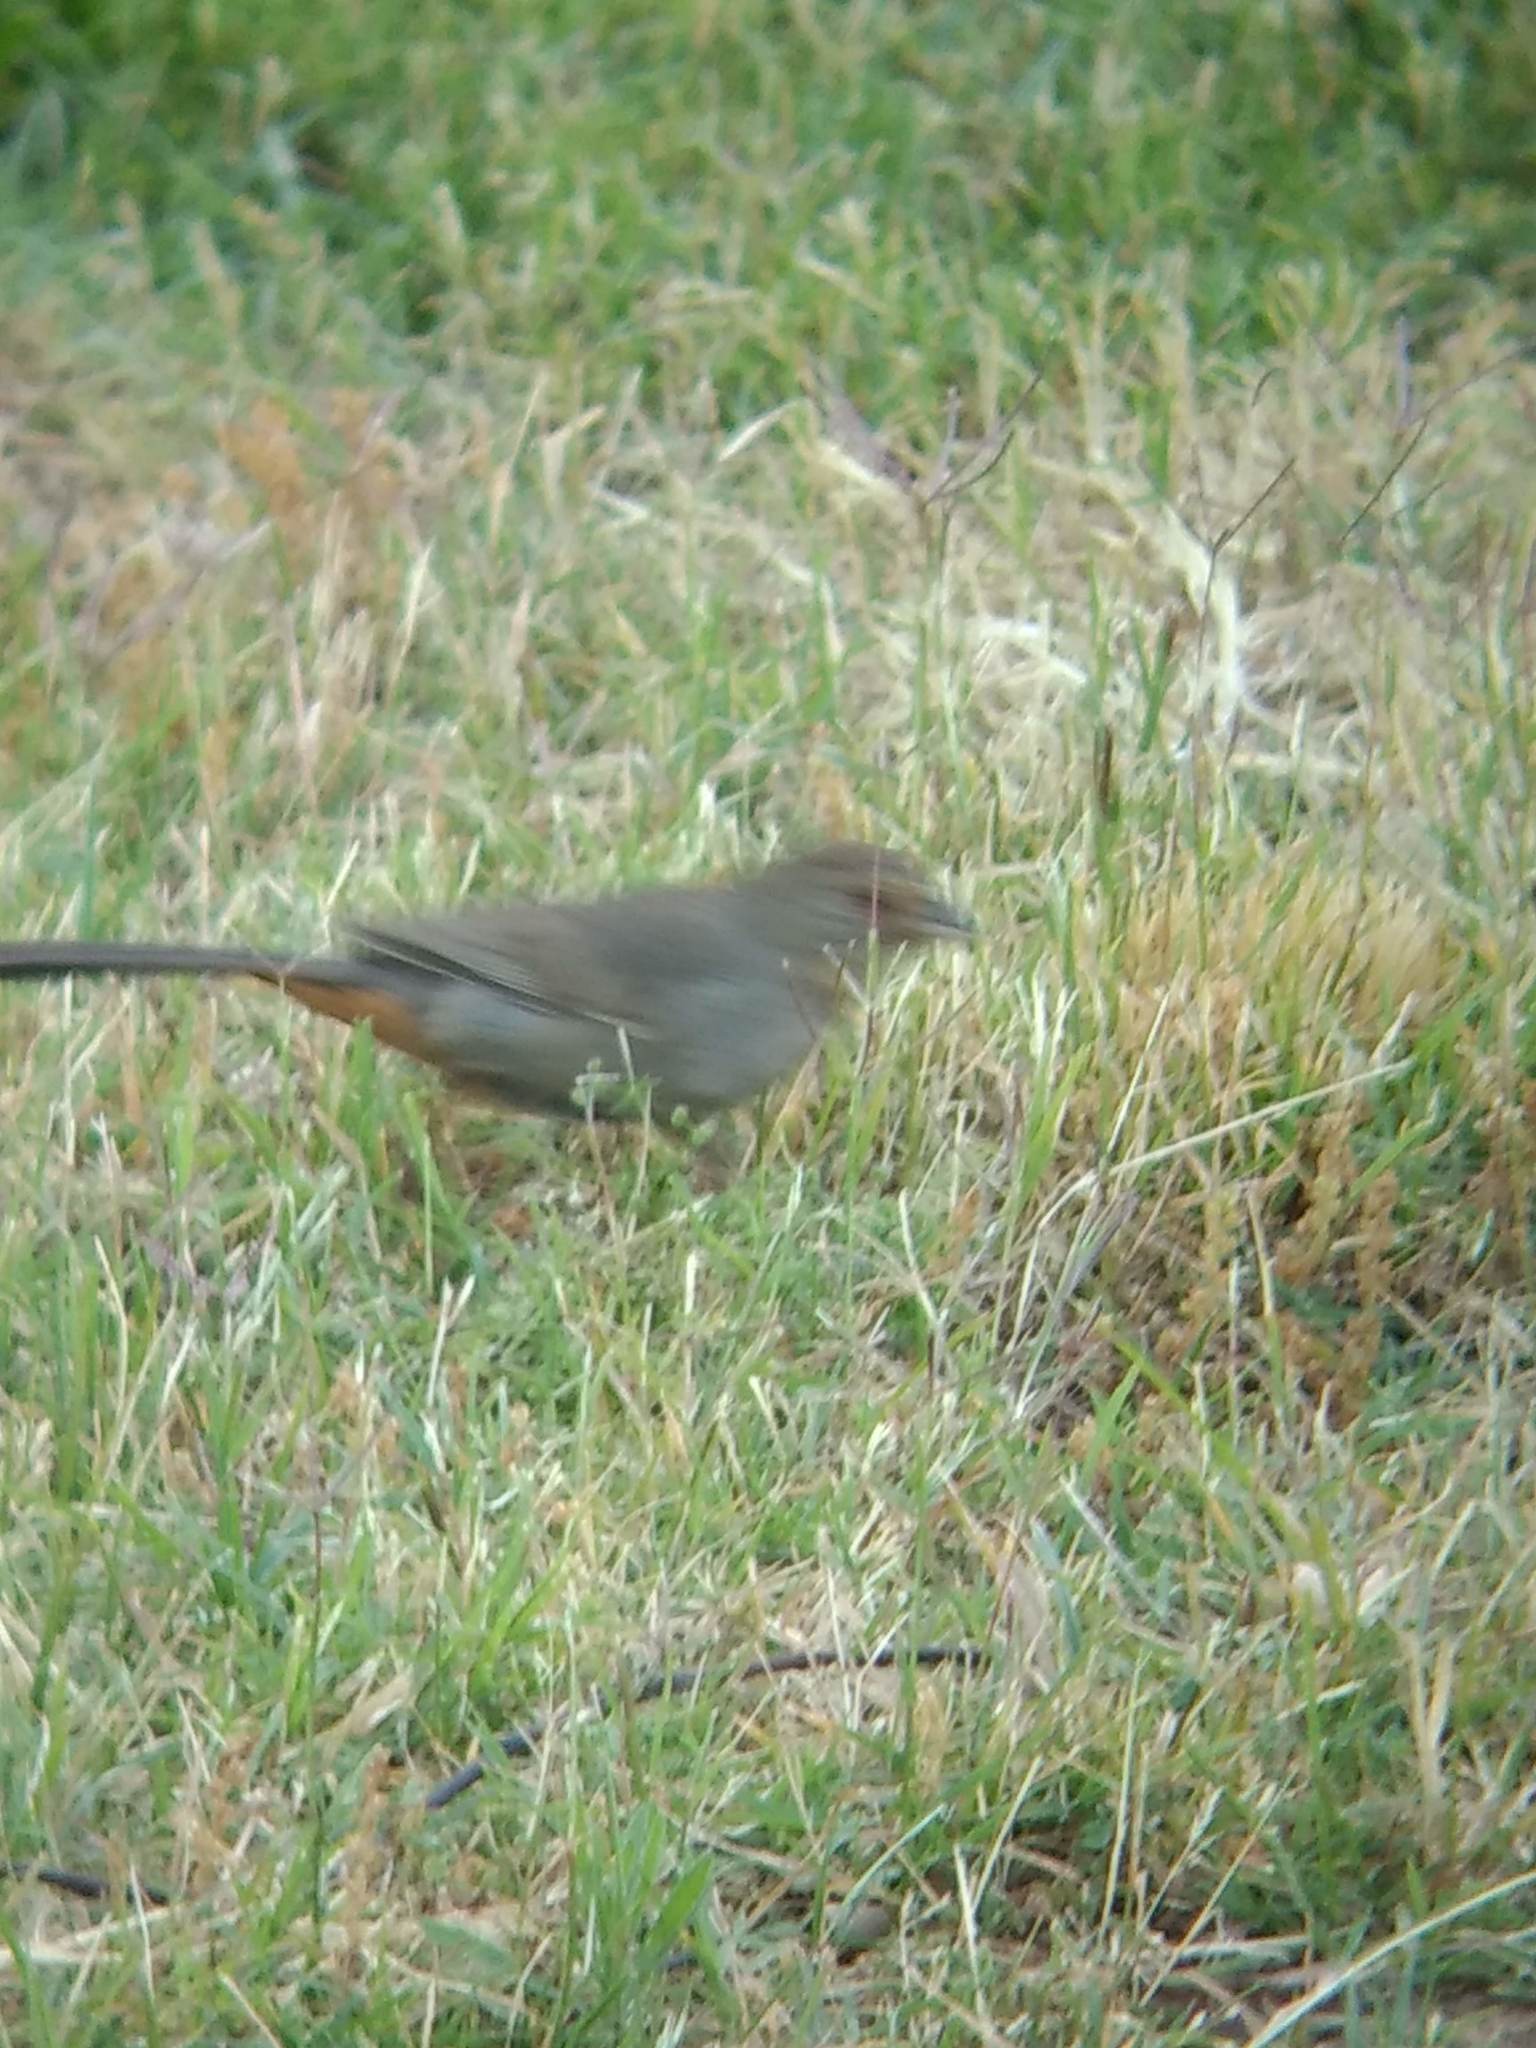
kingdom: Animalia
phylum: Chordata
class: Aves
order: Passeriformes
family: Passerellidae
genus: Melozone
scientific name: Melozone crissalis
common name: California towhee
